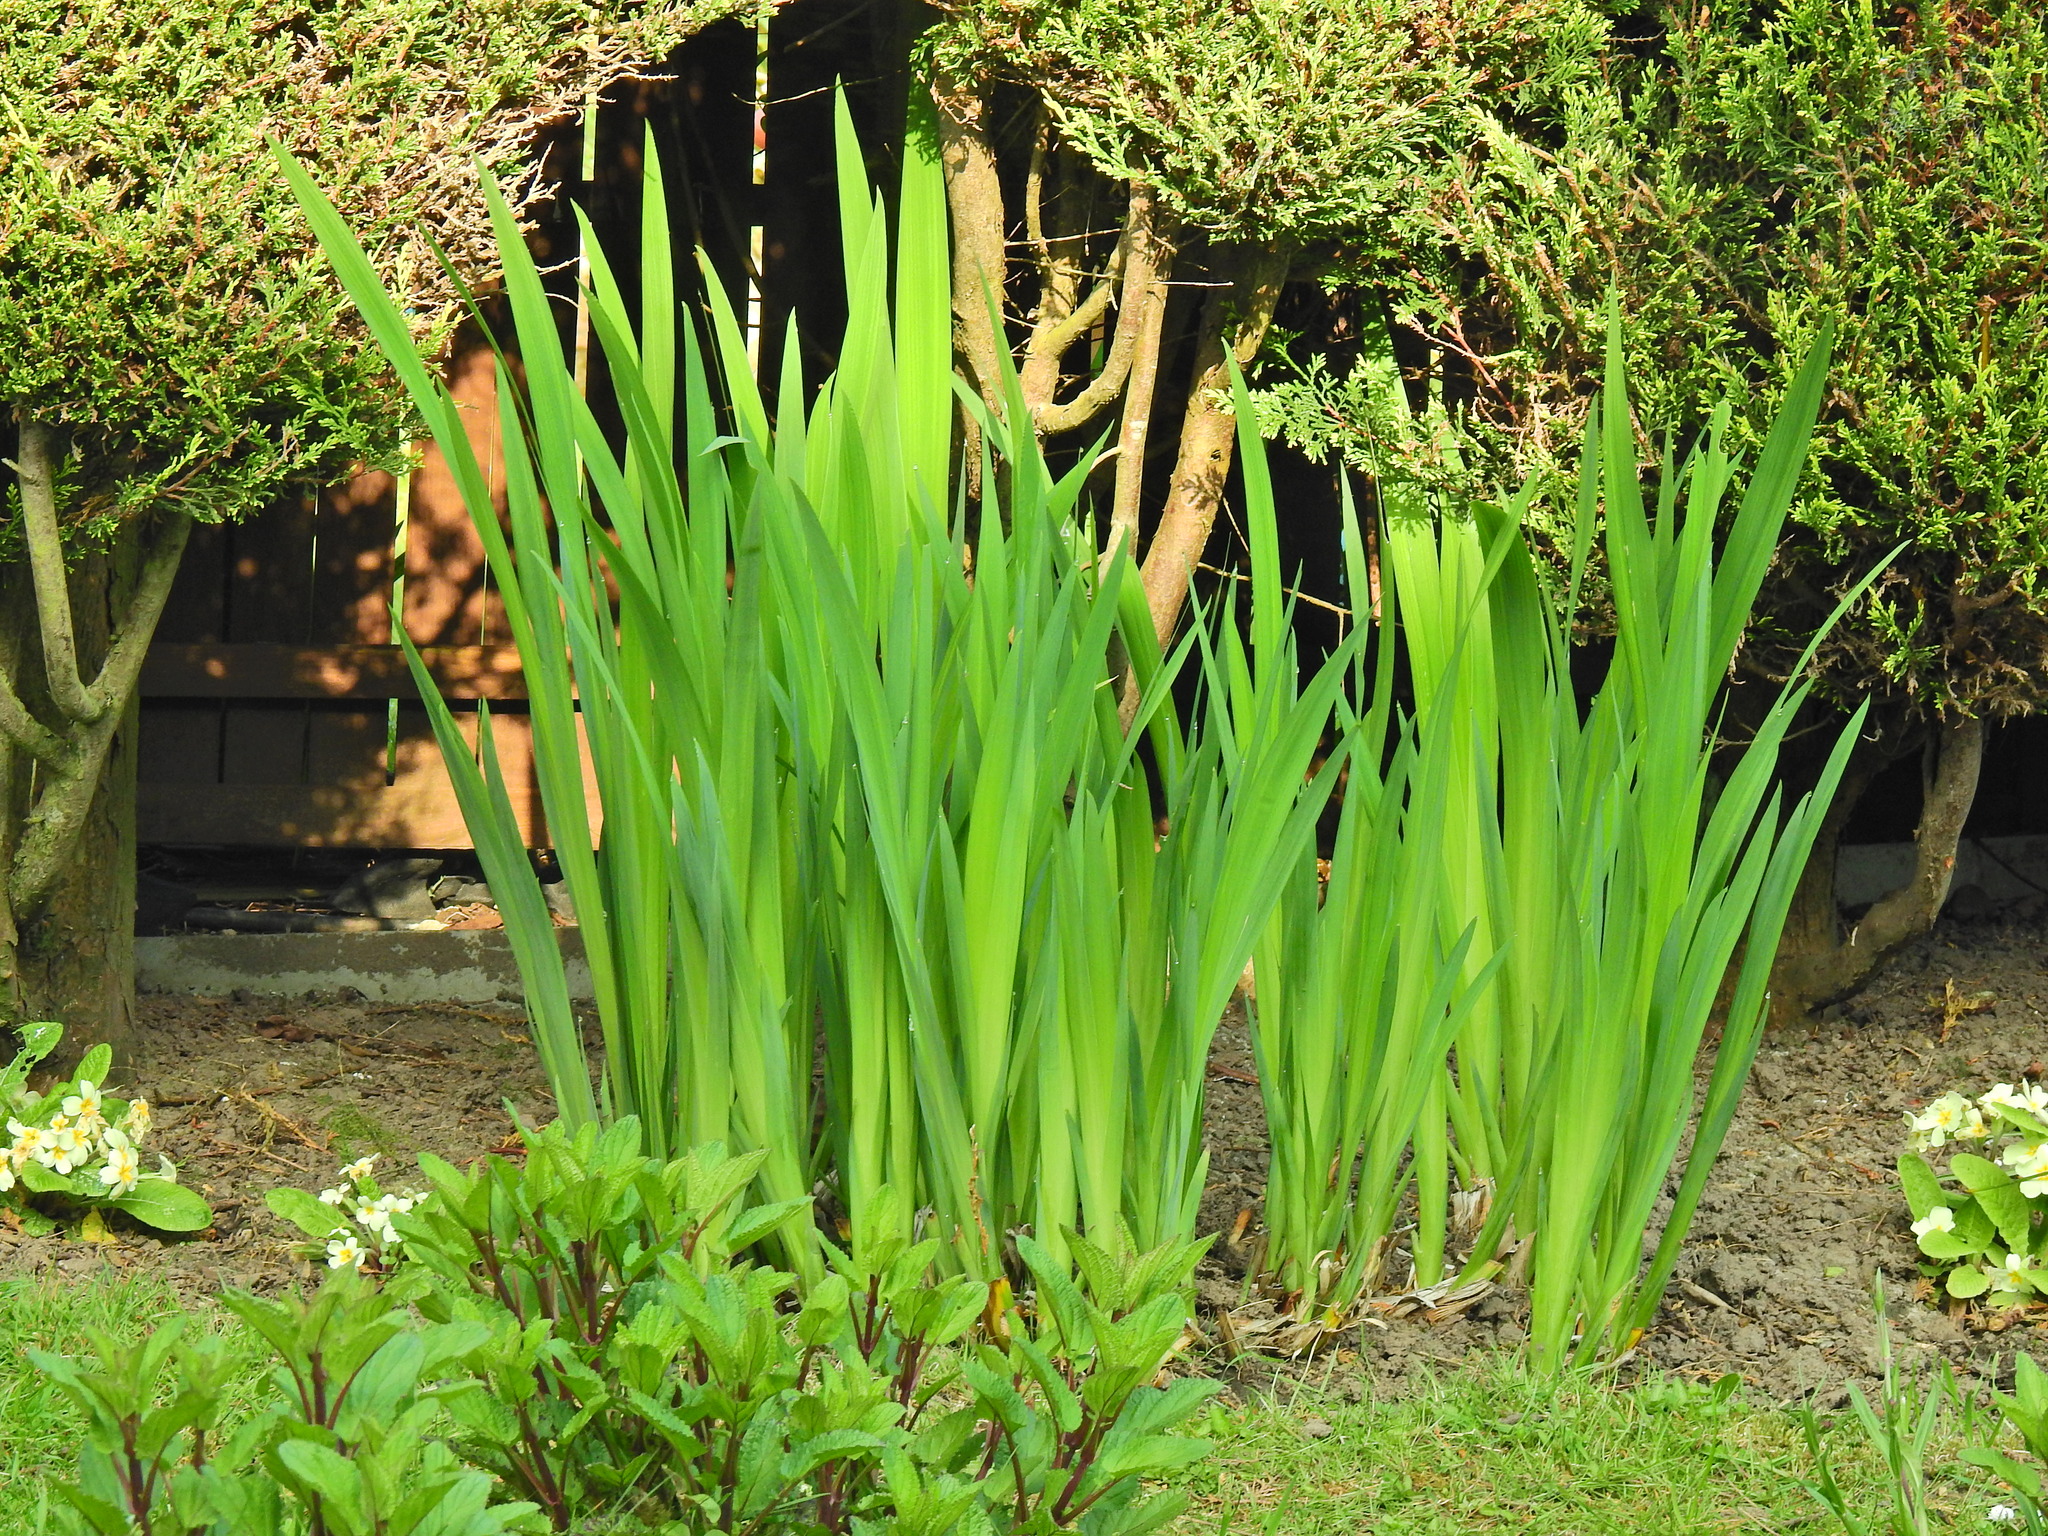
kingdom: Plantae
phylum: Tracheophyta
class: Liliopsida
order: Asparagales
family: Iridaceae
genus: Iris
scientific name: Iris pseudacorus
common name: Yellow flag
